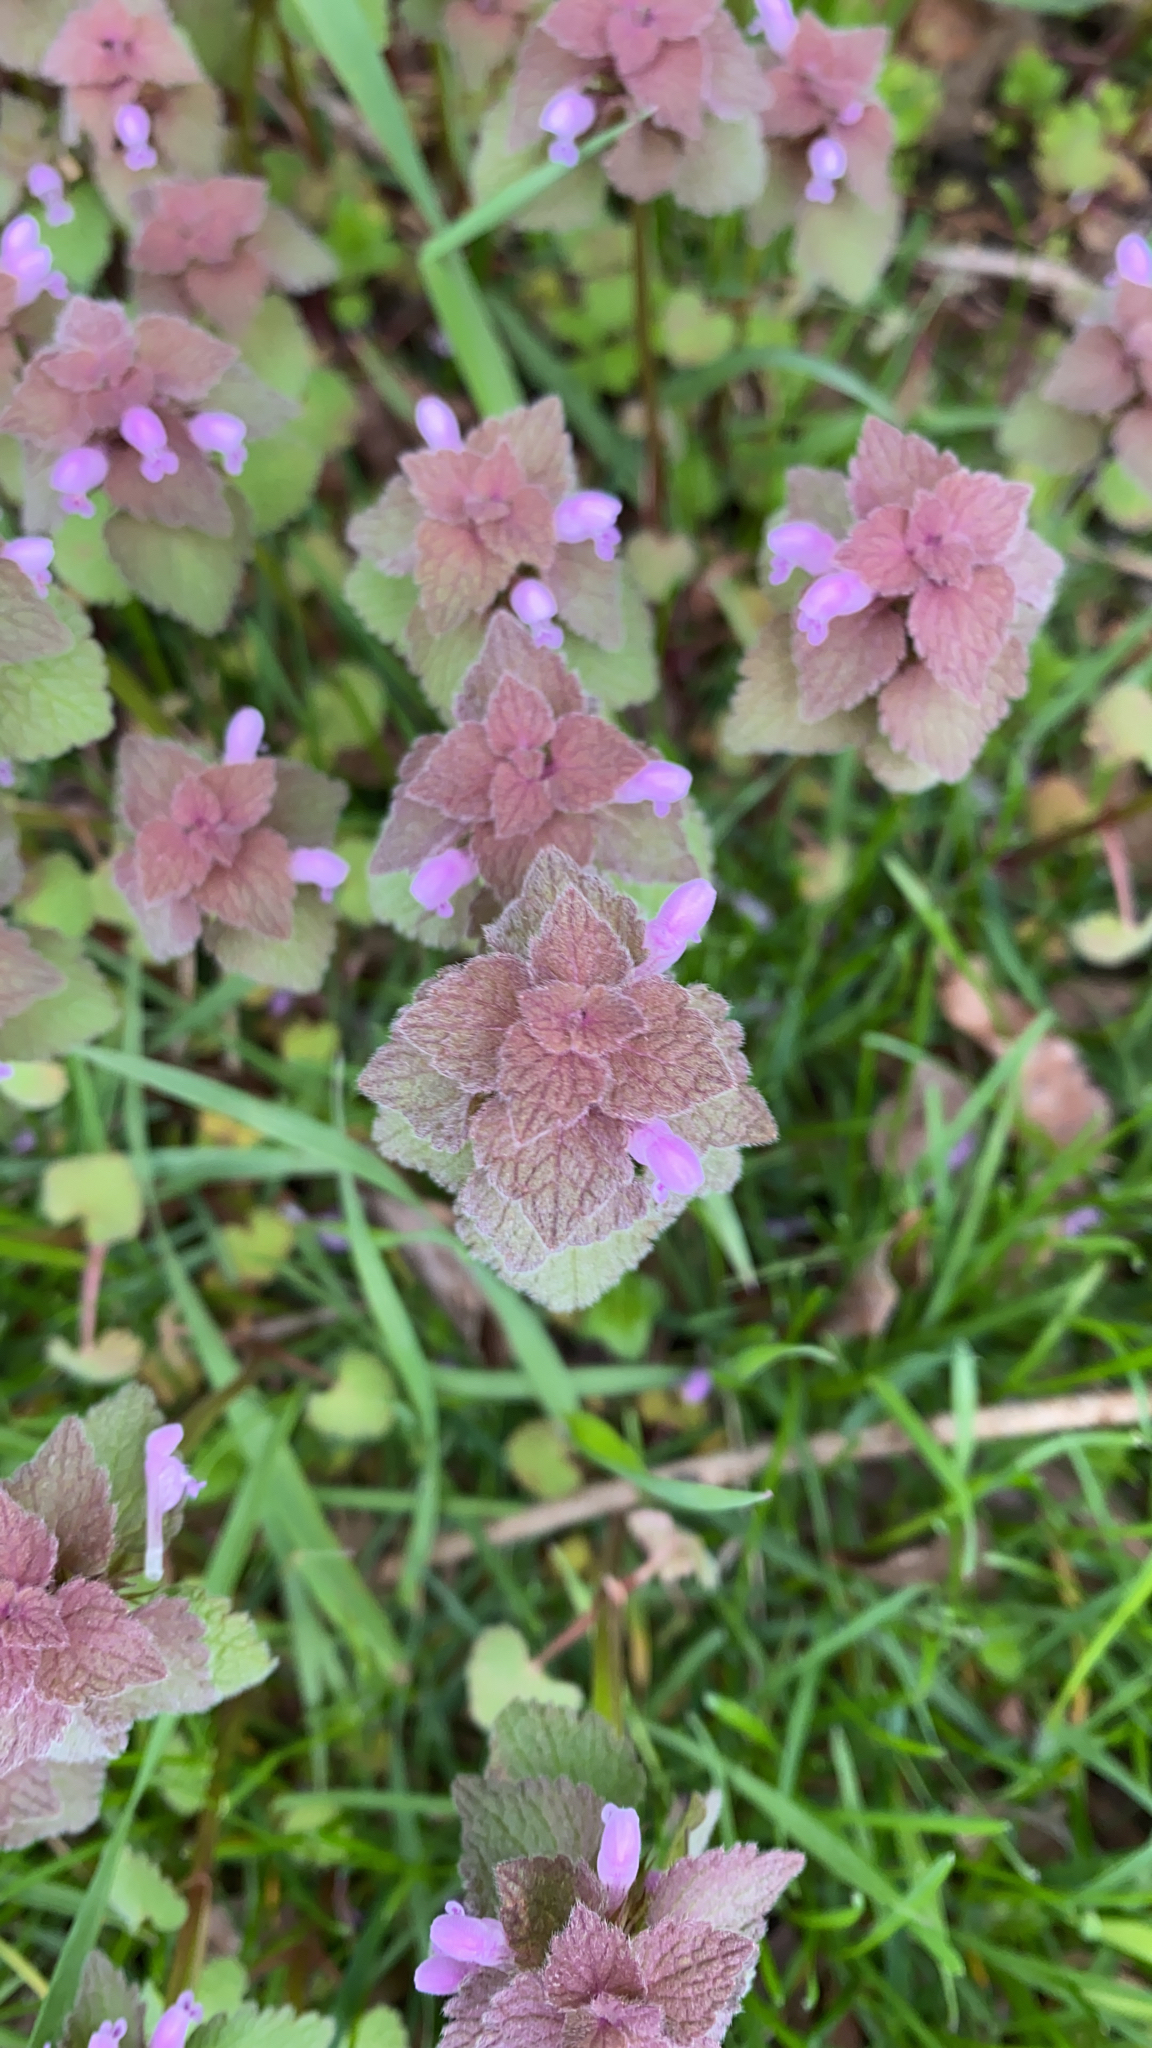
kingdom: Plantae
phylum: Tracheophyta
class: Magnoliopsida
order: Lamiales
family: Lamiaceae
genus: Lamium
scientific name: Lamium purpureum
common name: Red dead-nettle
